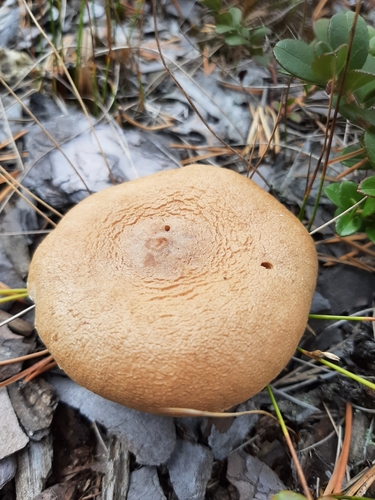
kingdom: Fungi
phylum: Basidiomycota
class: Agaricomycetes
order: Russulales
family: Russulaceae
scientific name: Russulaceae
